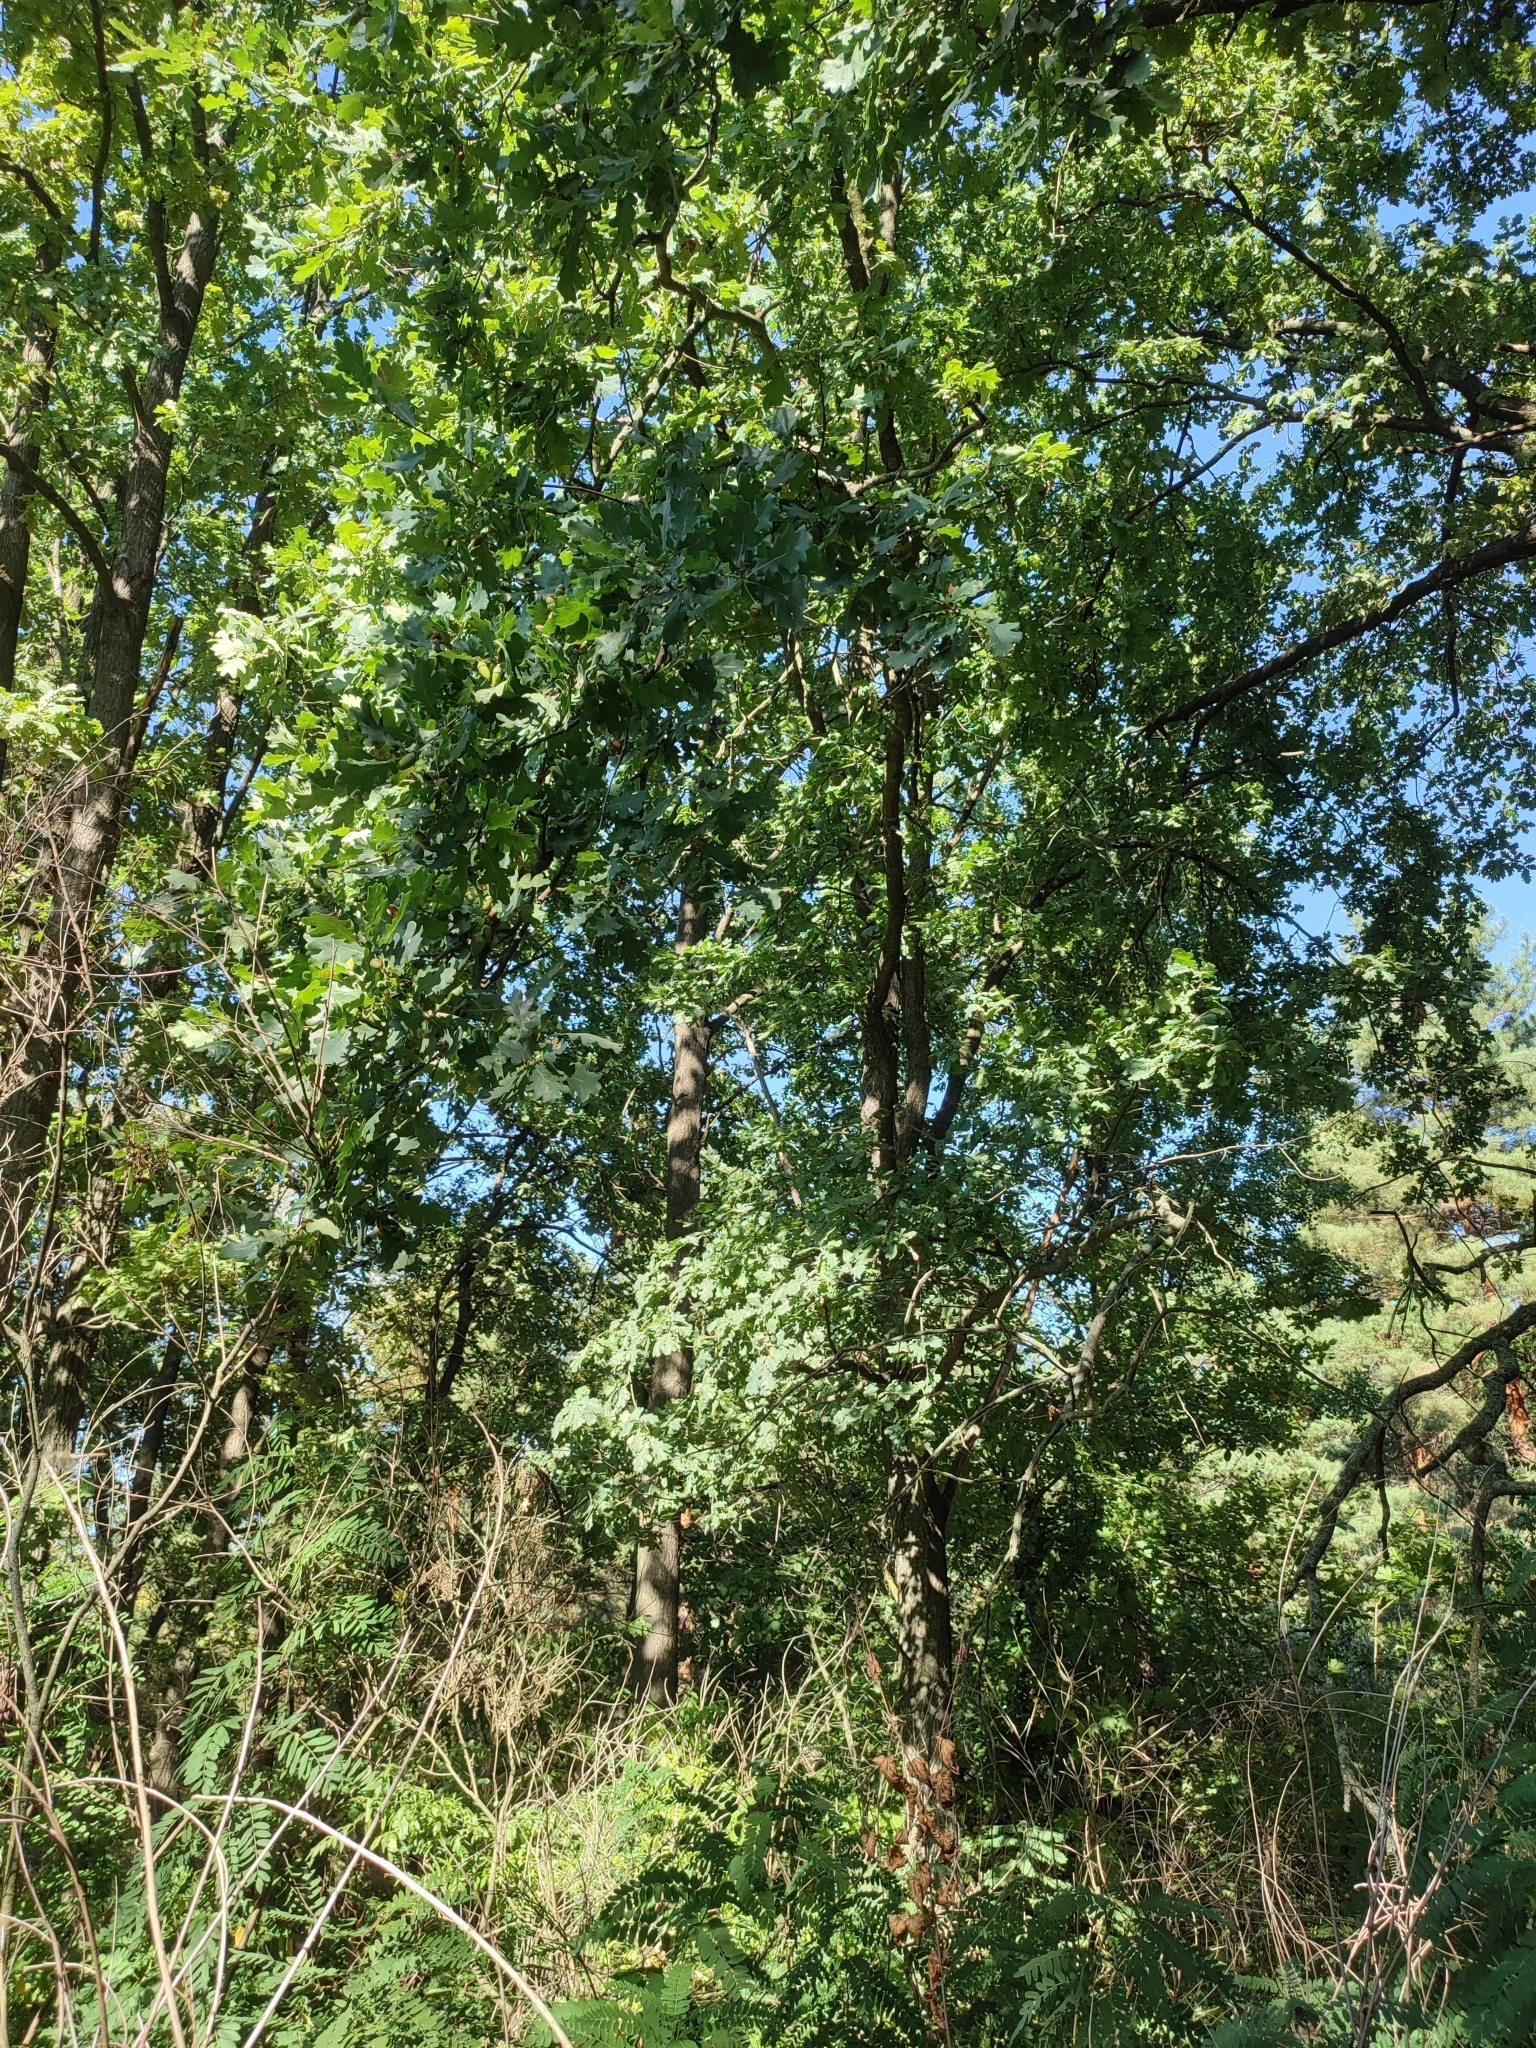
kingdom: Plantae
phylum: Tracheophyta
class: Magnoliopsida
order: Fagales
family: Fagaceae
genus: Quercus
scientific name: Quercus robur
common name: Pedunculate oak
